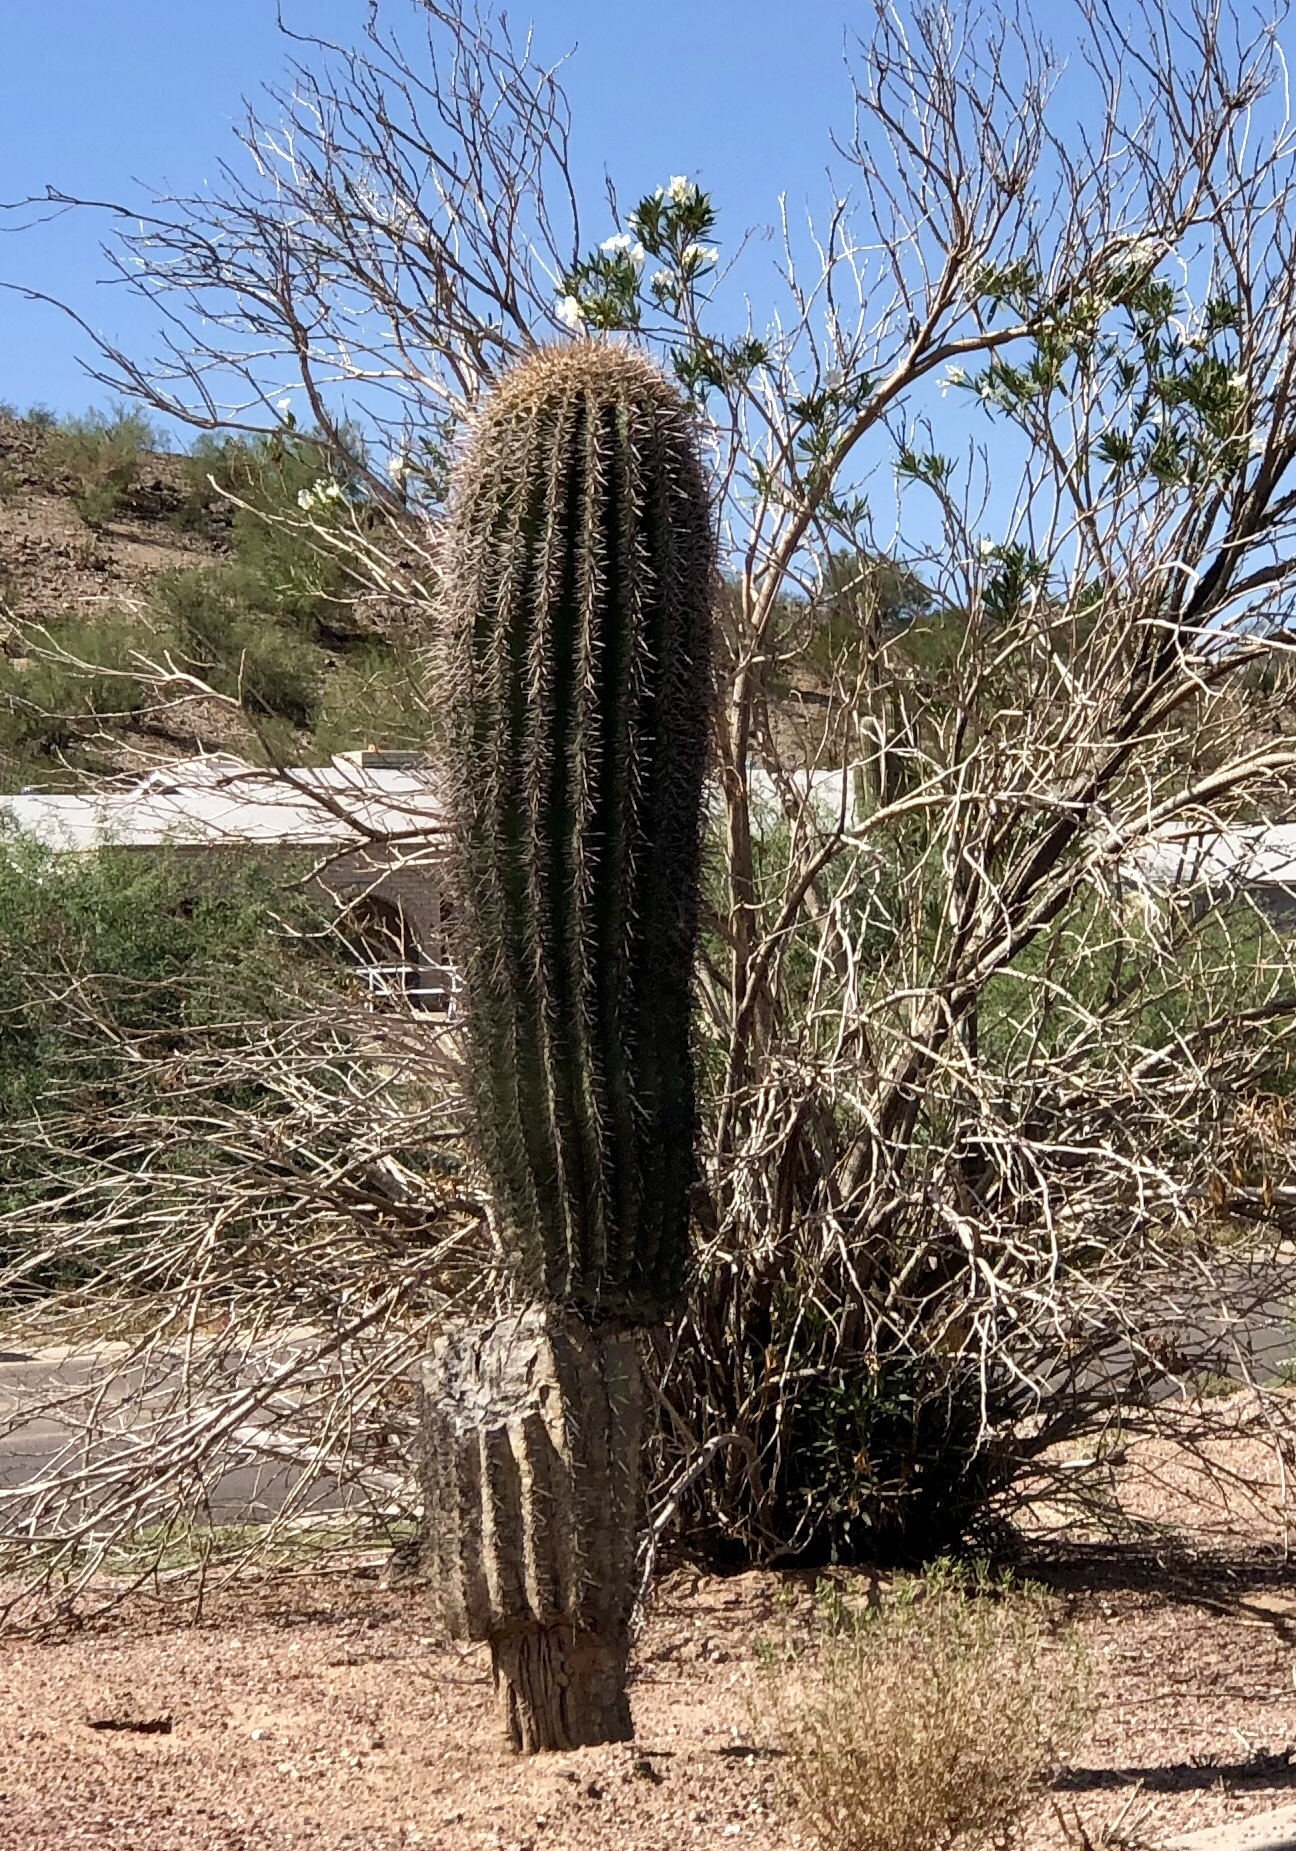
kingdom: Plantae
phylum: Tracheophyta
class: Magnoliopsida
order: Caryophyllales
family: Cactaceae
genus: Carnegiea
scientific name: Carnegiea gigantea
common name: Saguaro
